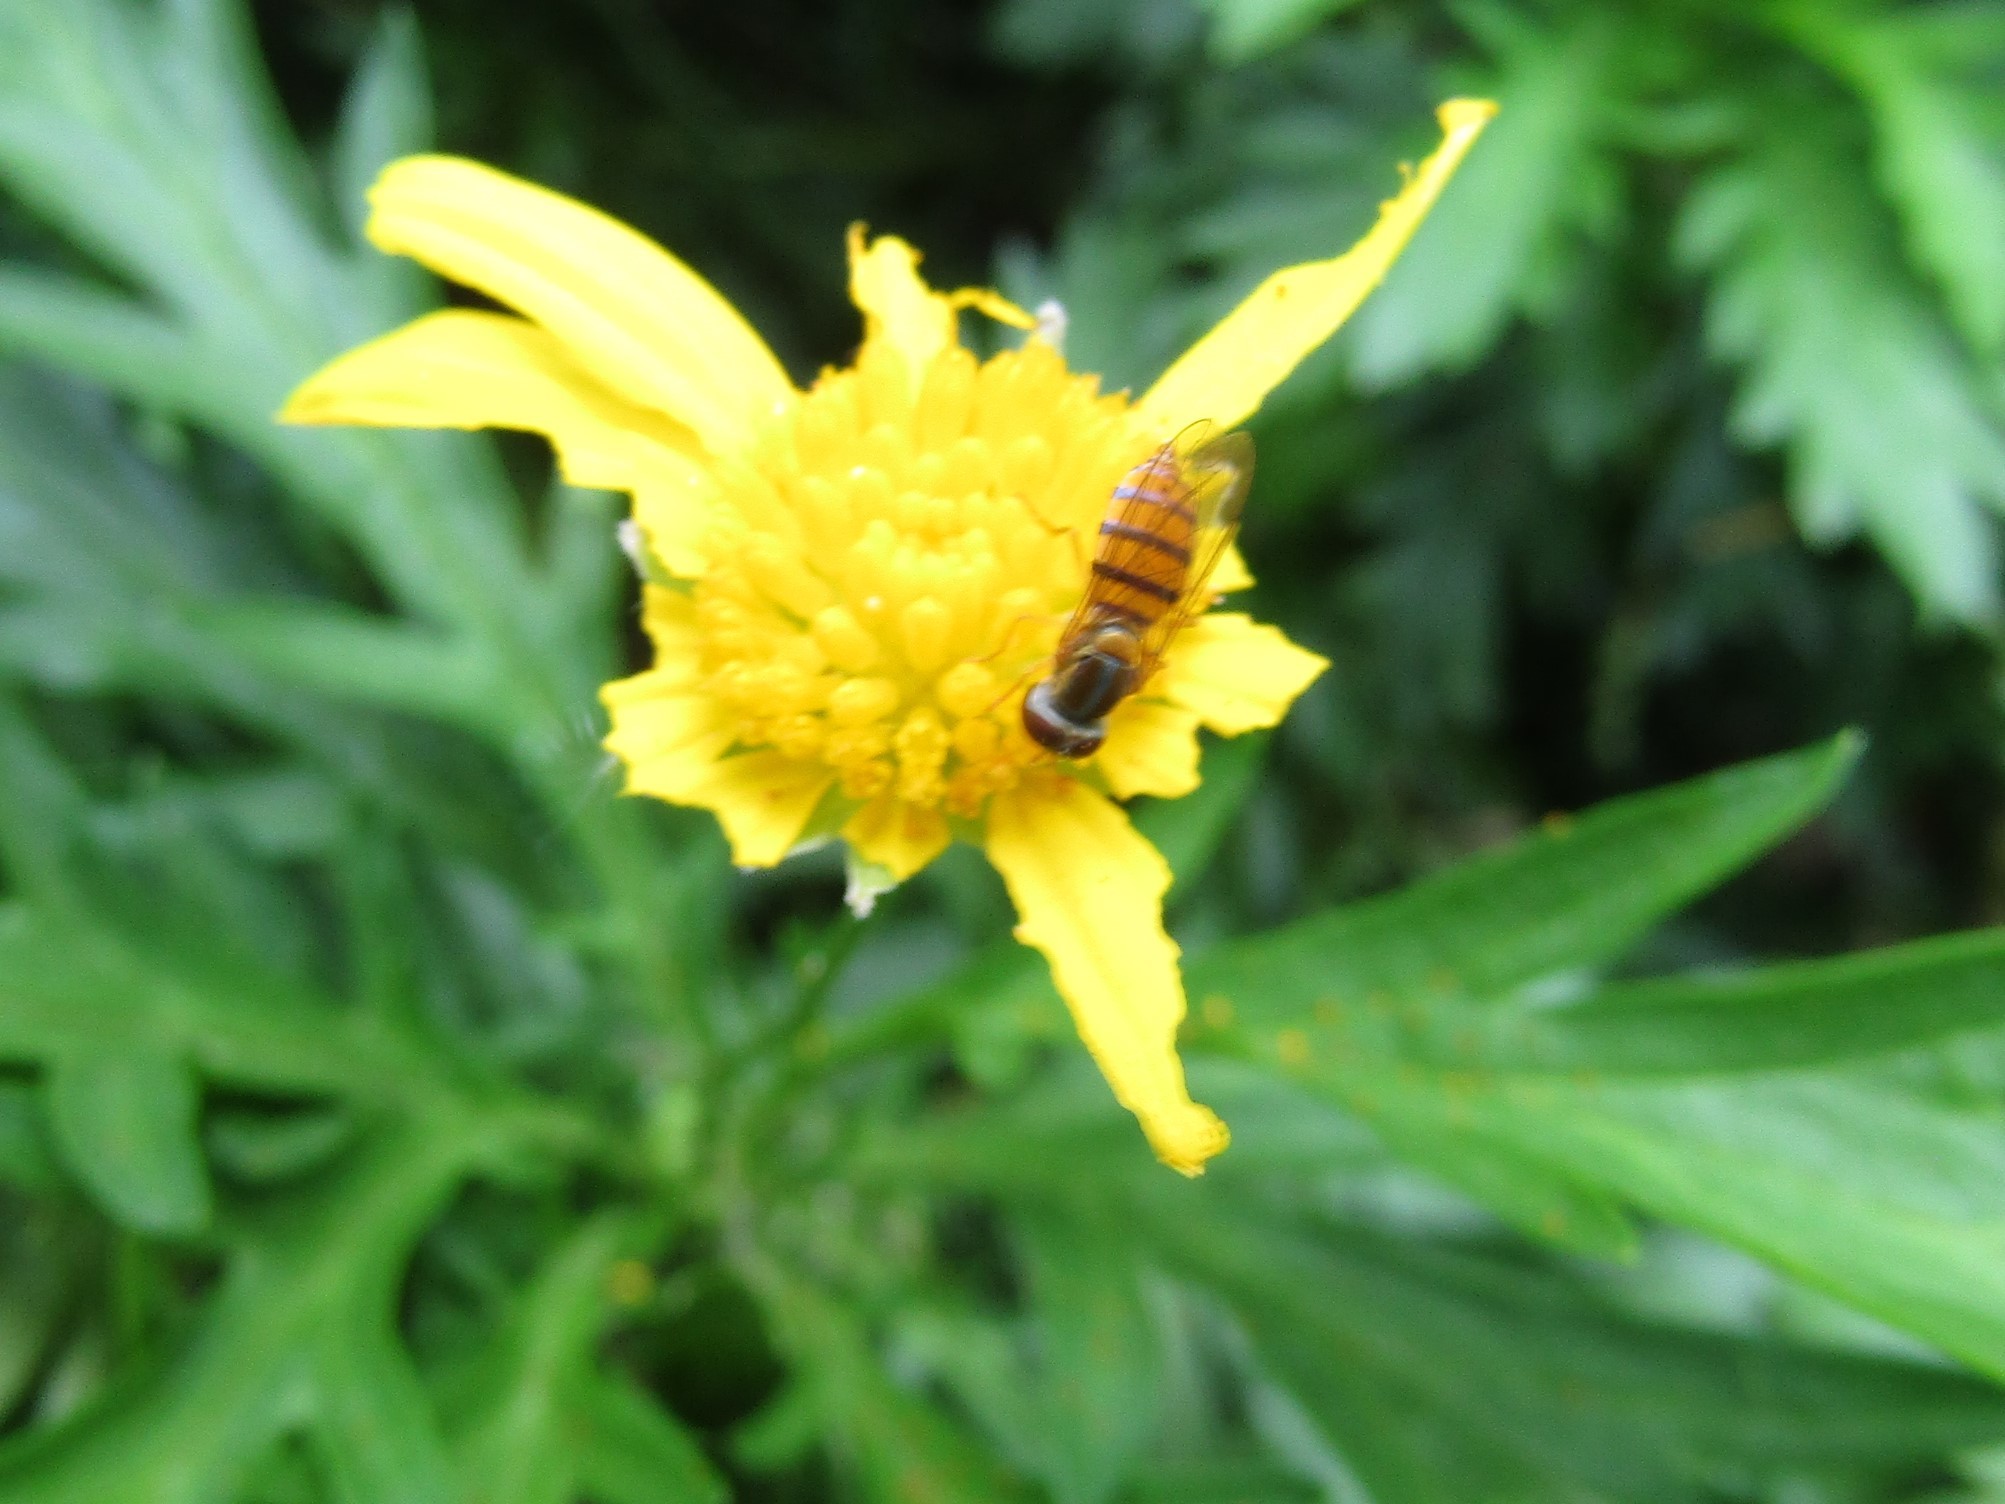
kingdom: Animalia
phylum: Arthropoda
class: Insecta
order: Diptera
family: Syrphidae
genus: Toxomerus
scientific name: Toxomerus
